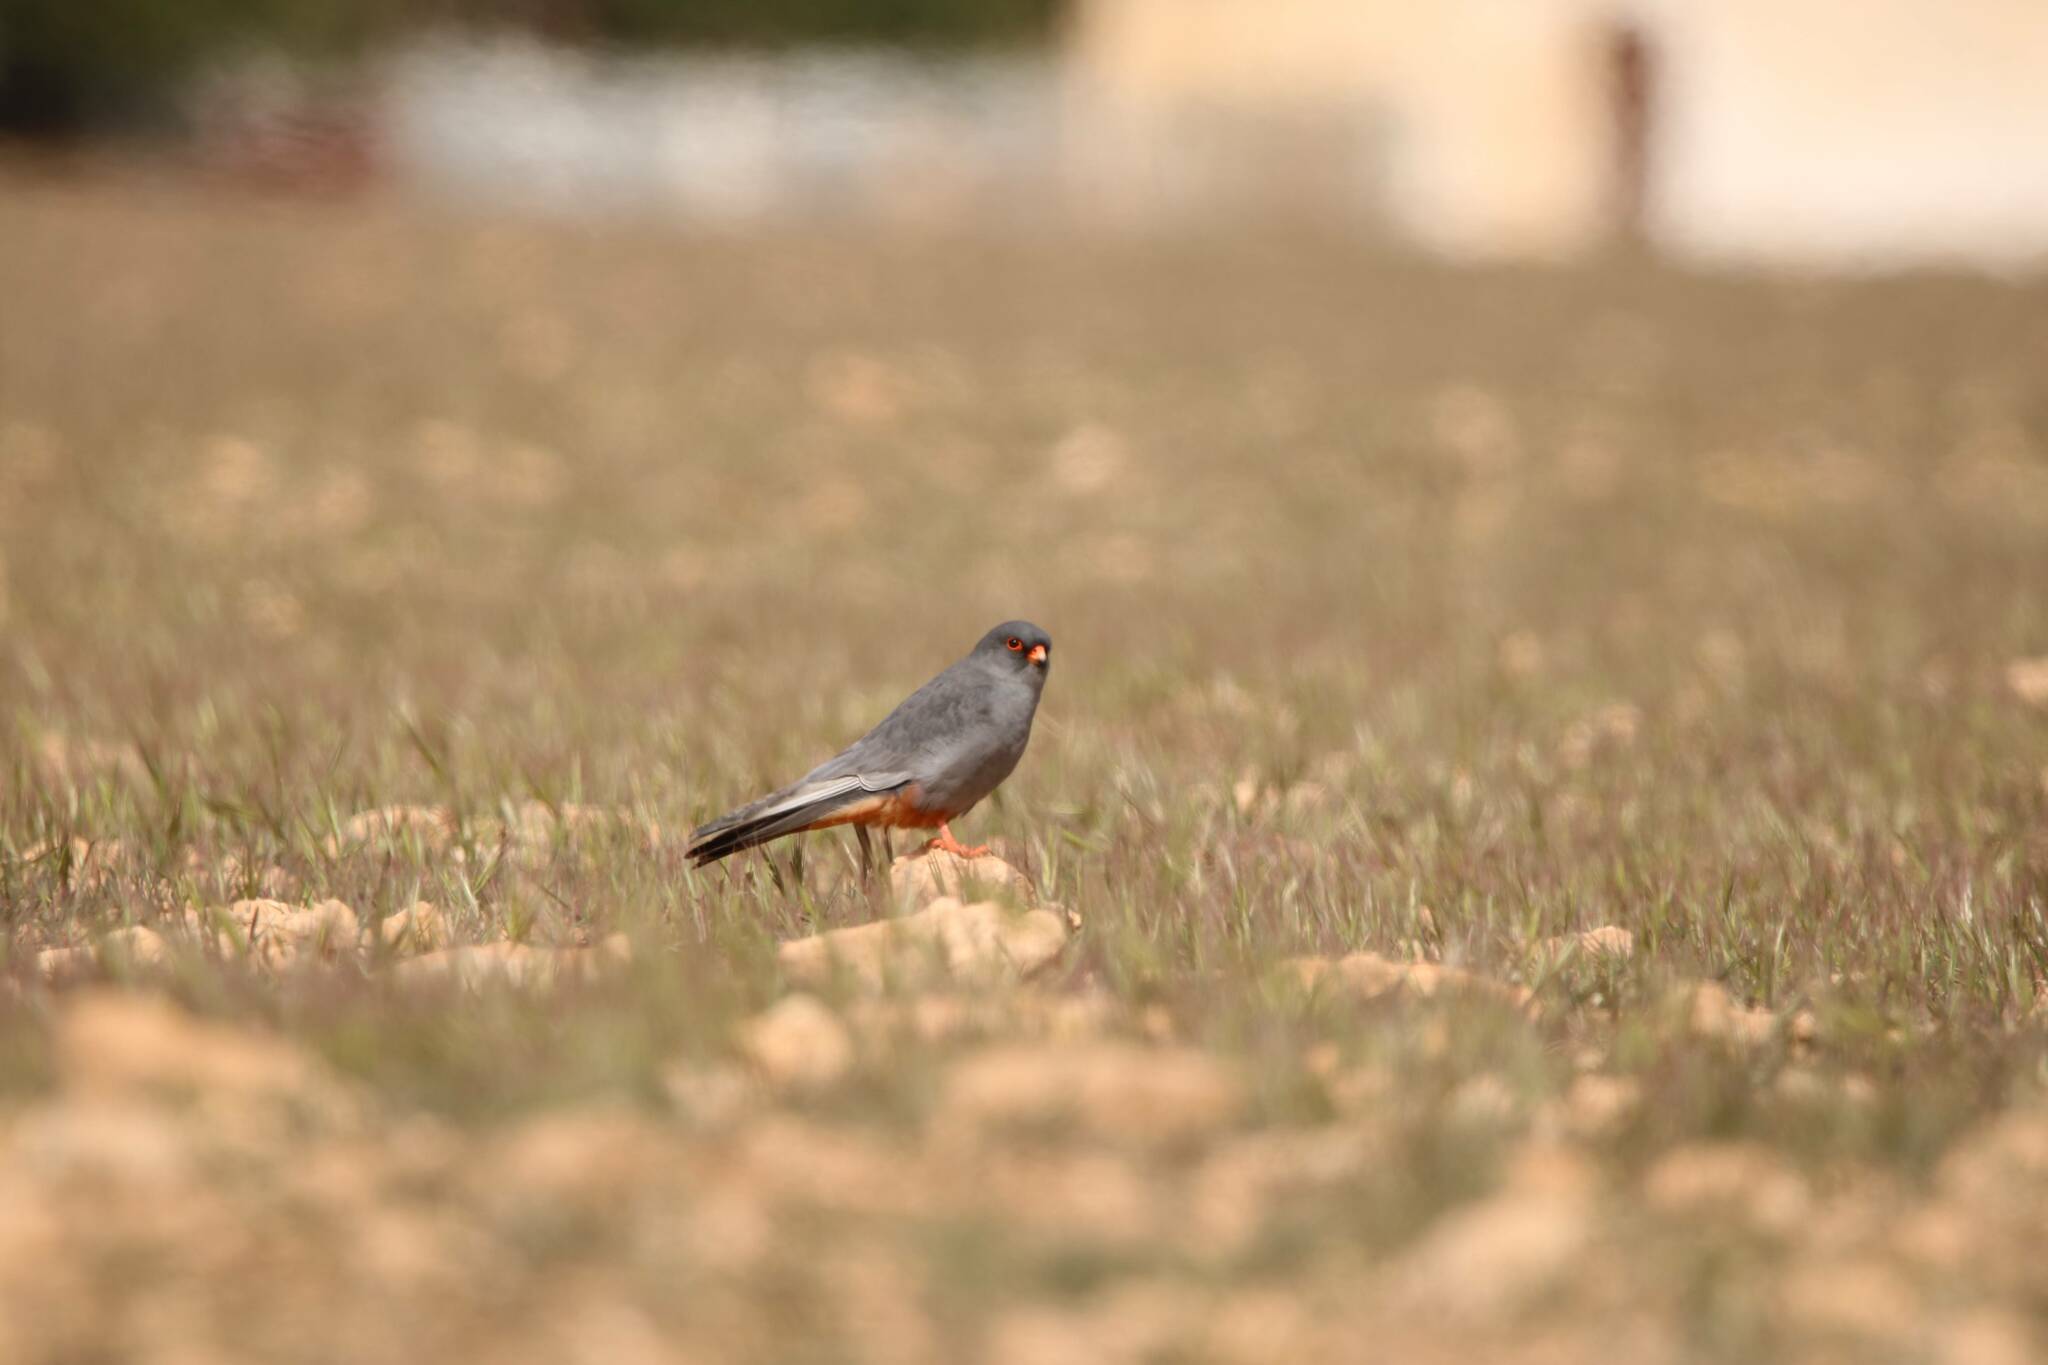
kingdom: Animalia
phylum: Chordata
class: Aves
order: Falconiformes
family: Falconidae
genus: Falco
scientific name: Falco vespertinus
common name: Red-footed falcon
